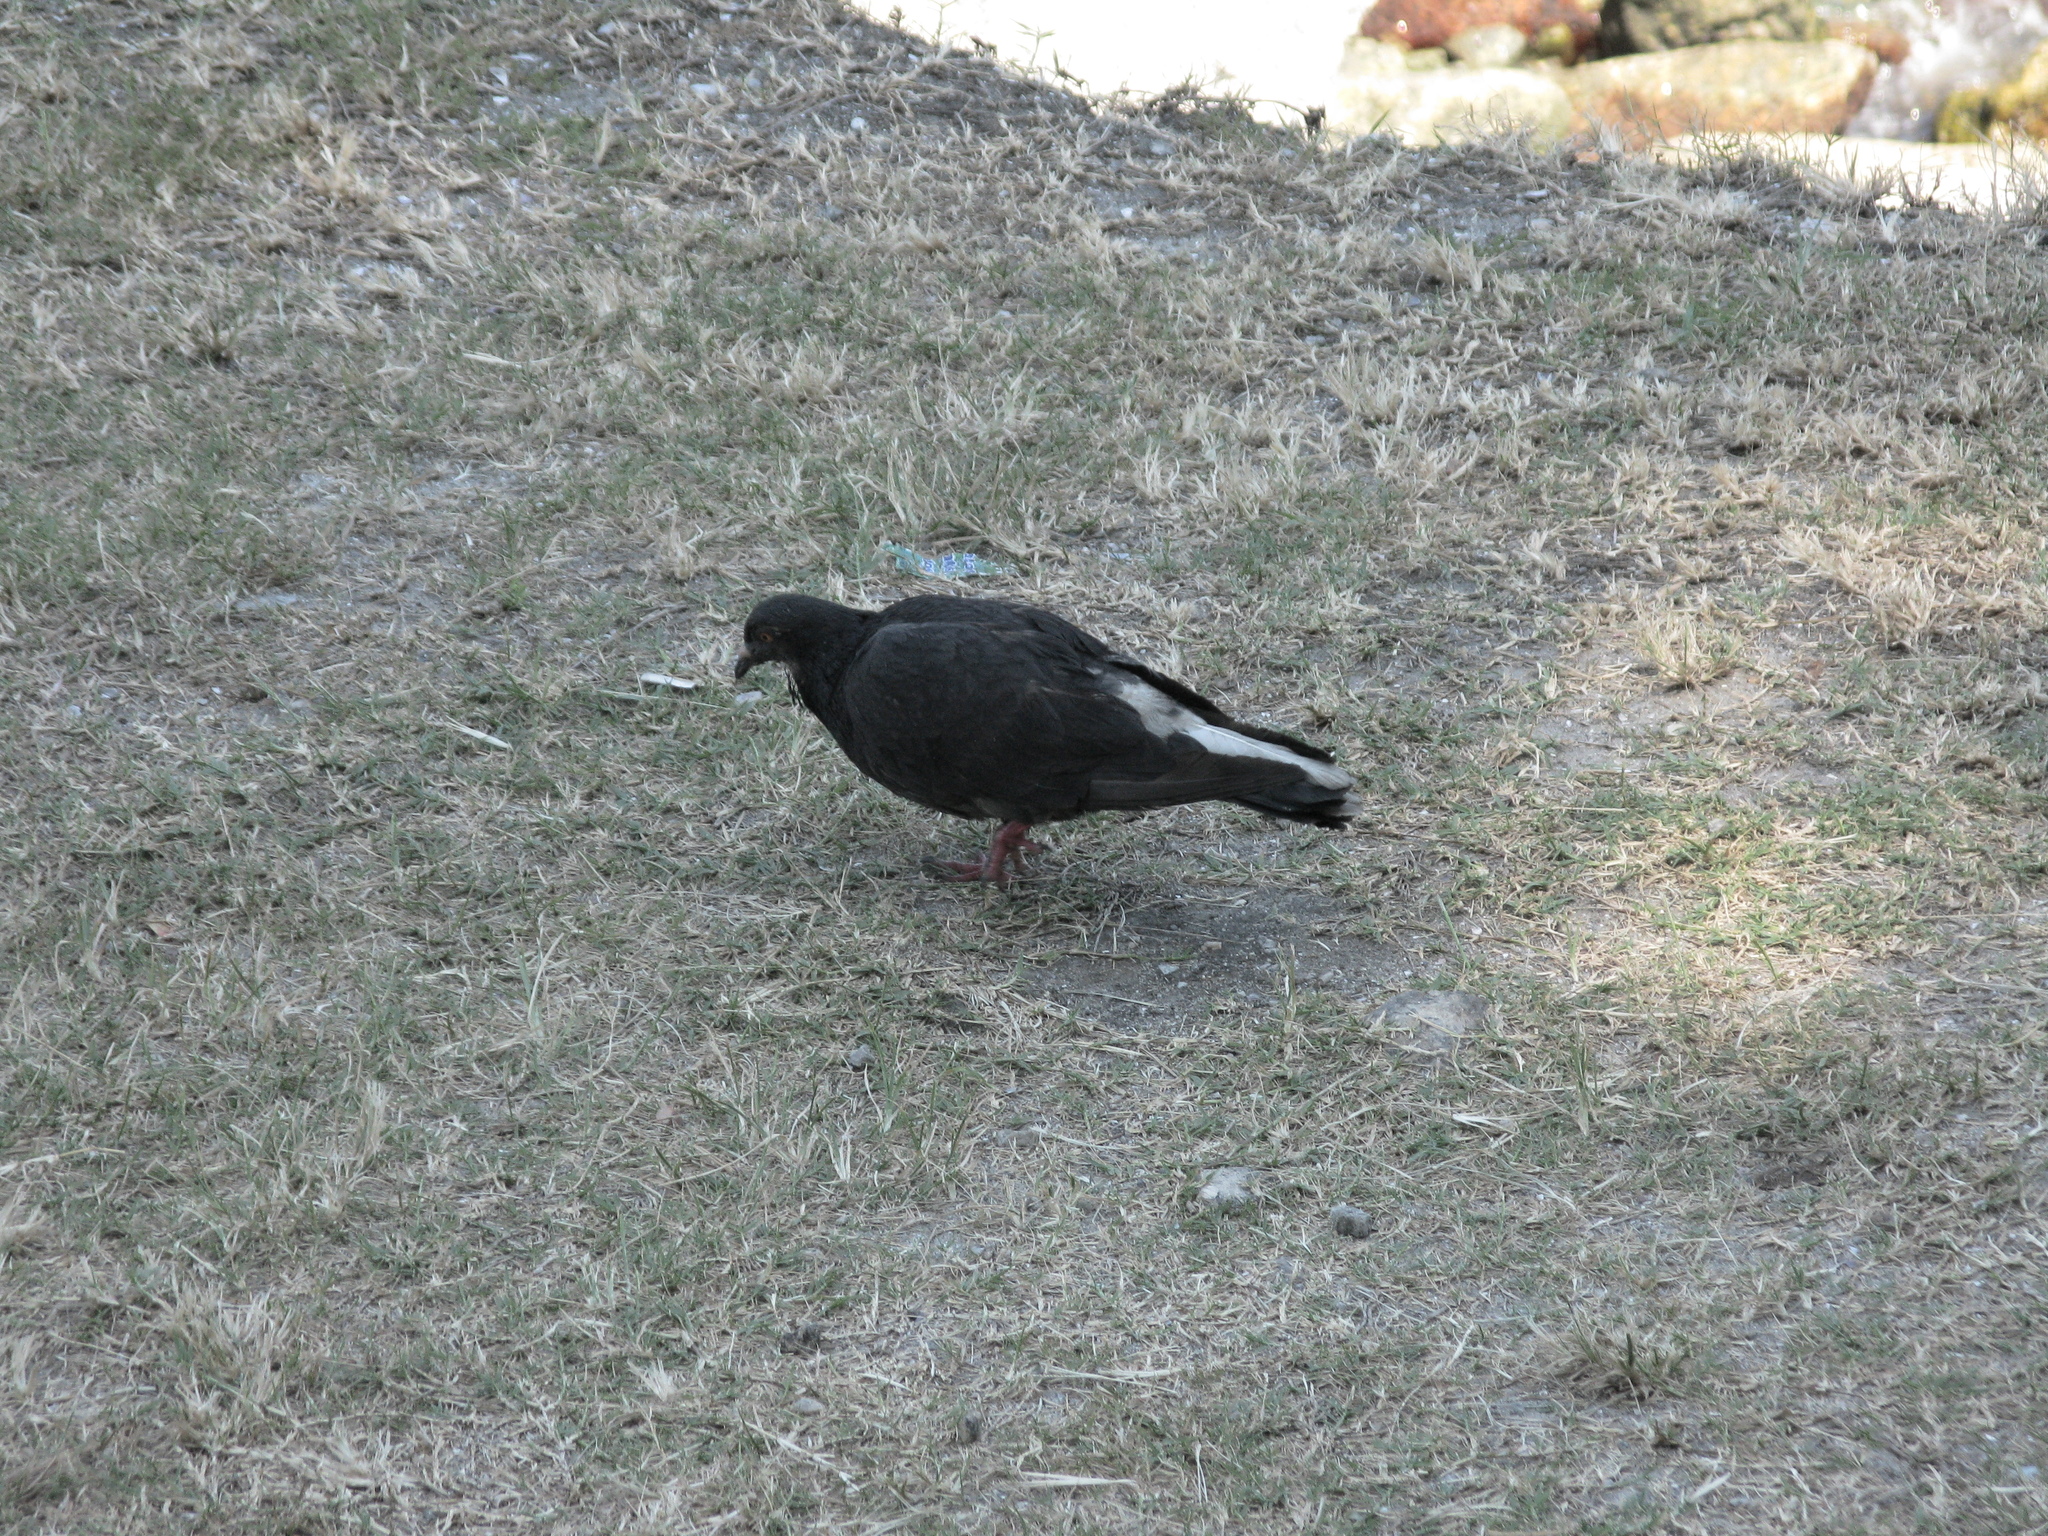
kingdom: Animalia
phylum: Chordata
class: Aves
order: Columbiformes
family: Columbidae
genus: Columba
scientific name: Columba livia
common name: Rock pigeon
